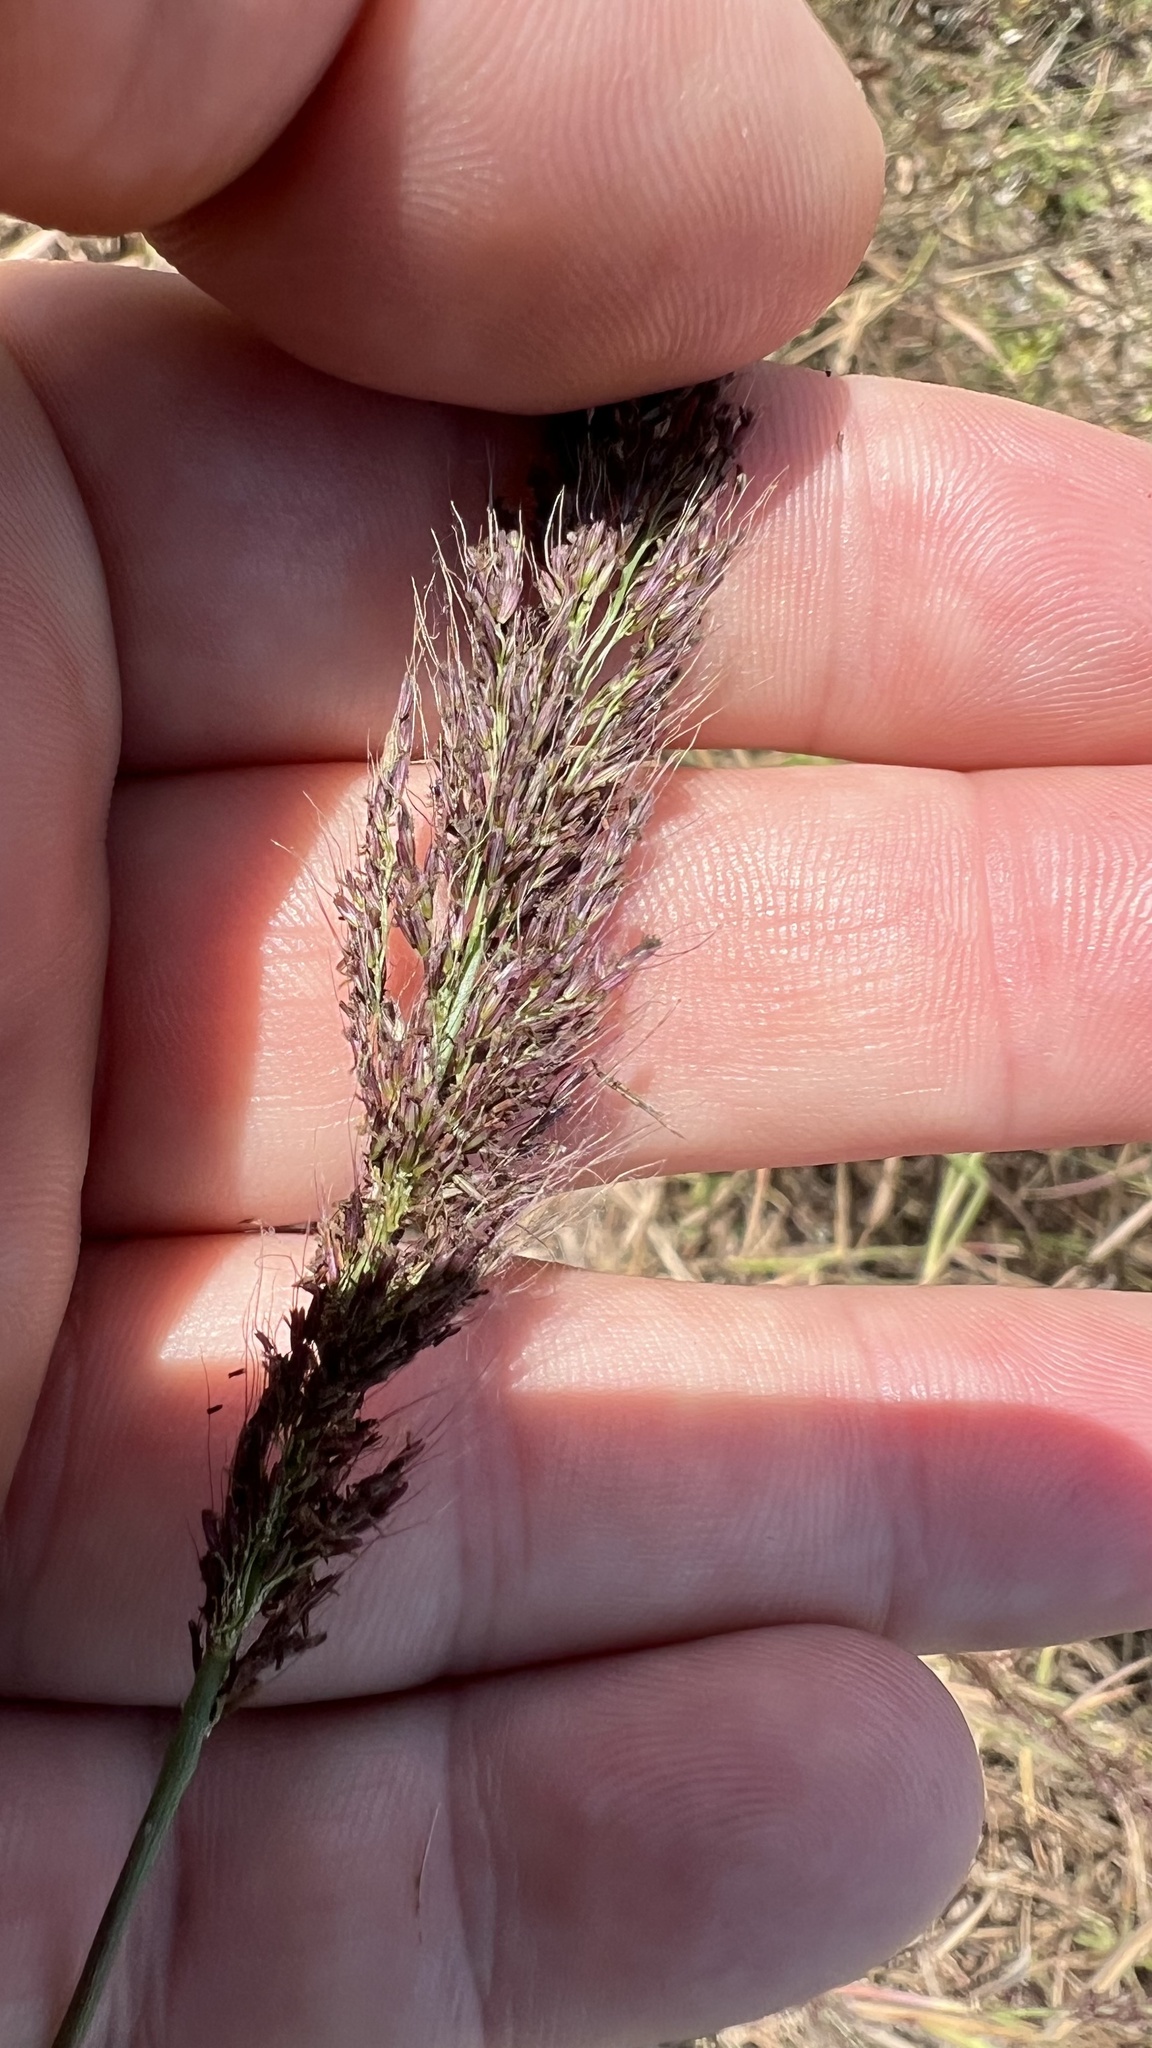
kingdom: Plantae
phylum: Tracheophyta
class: Liliopsida
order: Poales
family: Poaceae
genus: Melinis
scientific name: Melinis minutiflora
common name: Molassesgrass
